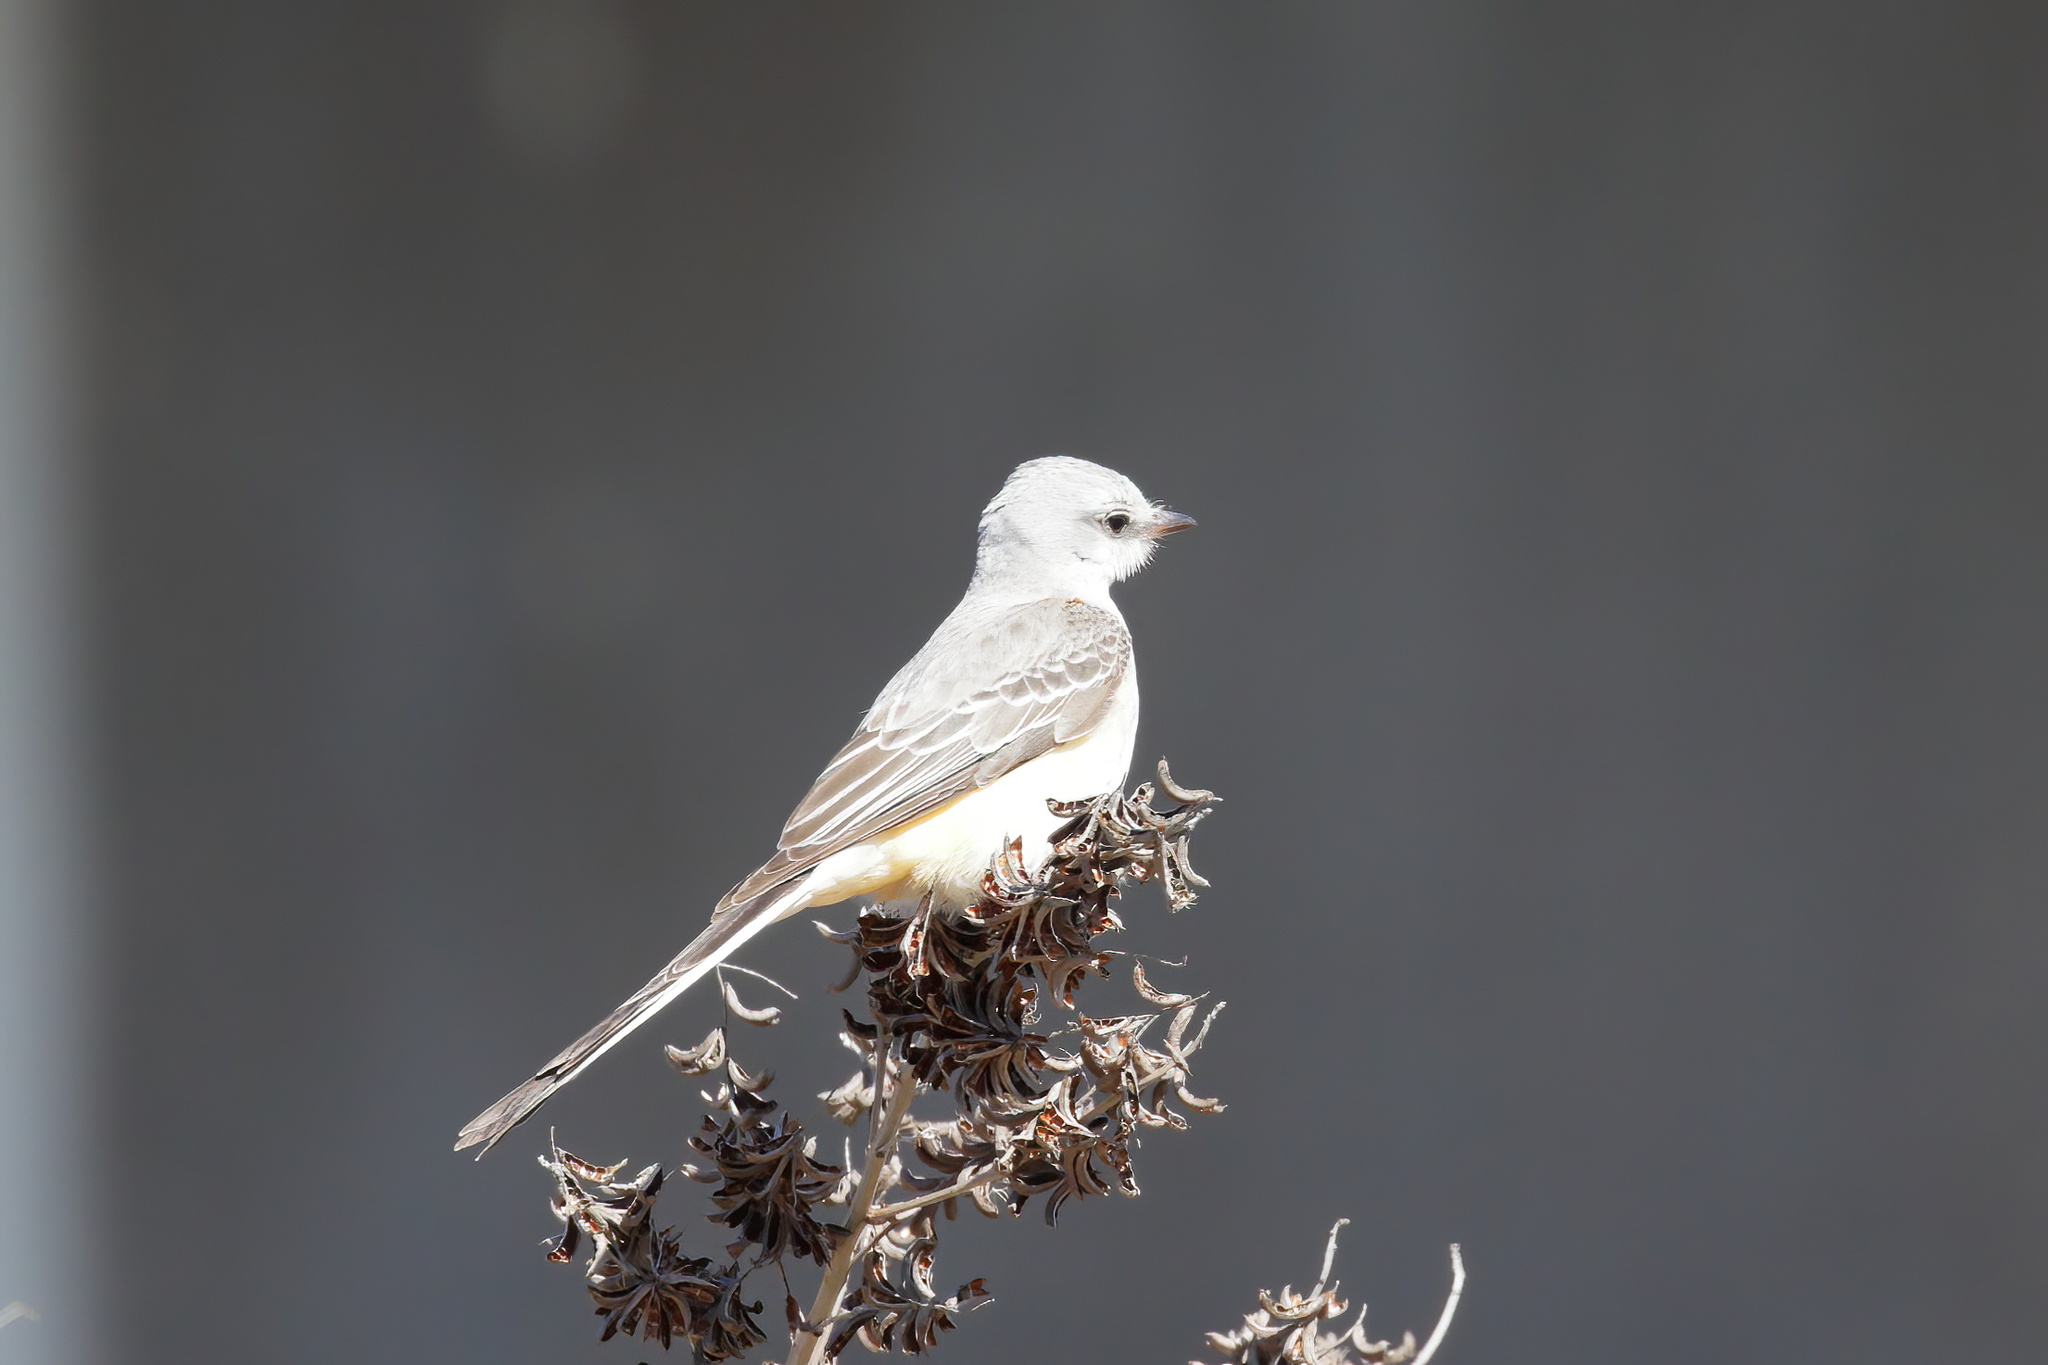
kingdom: Animalia
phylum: Chordata
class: Aves
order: Passeriformes
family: Tyrannidae
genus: Tyrannus
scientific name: Tyrannus forficatus
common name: Scissor-tailed flycatcher
